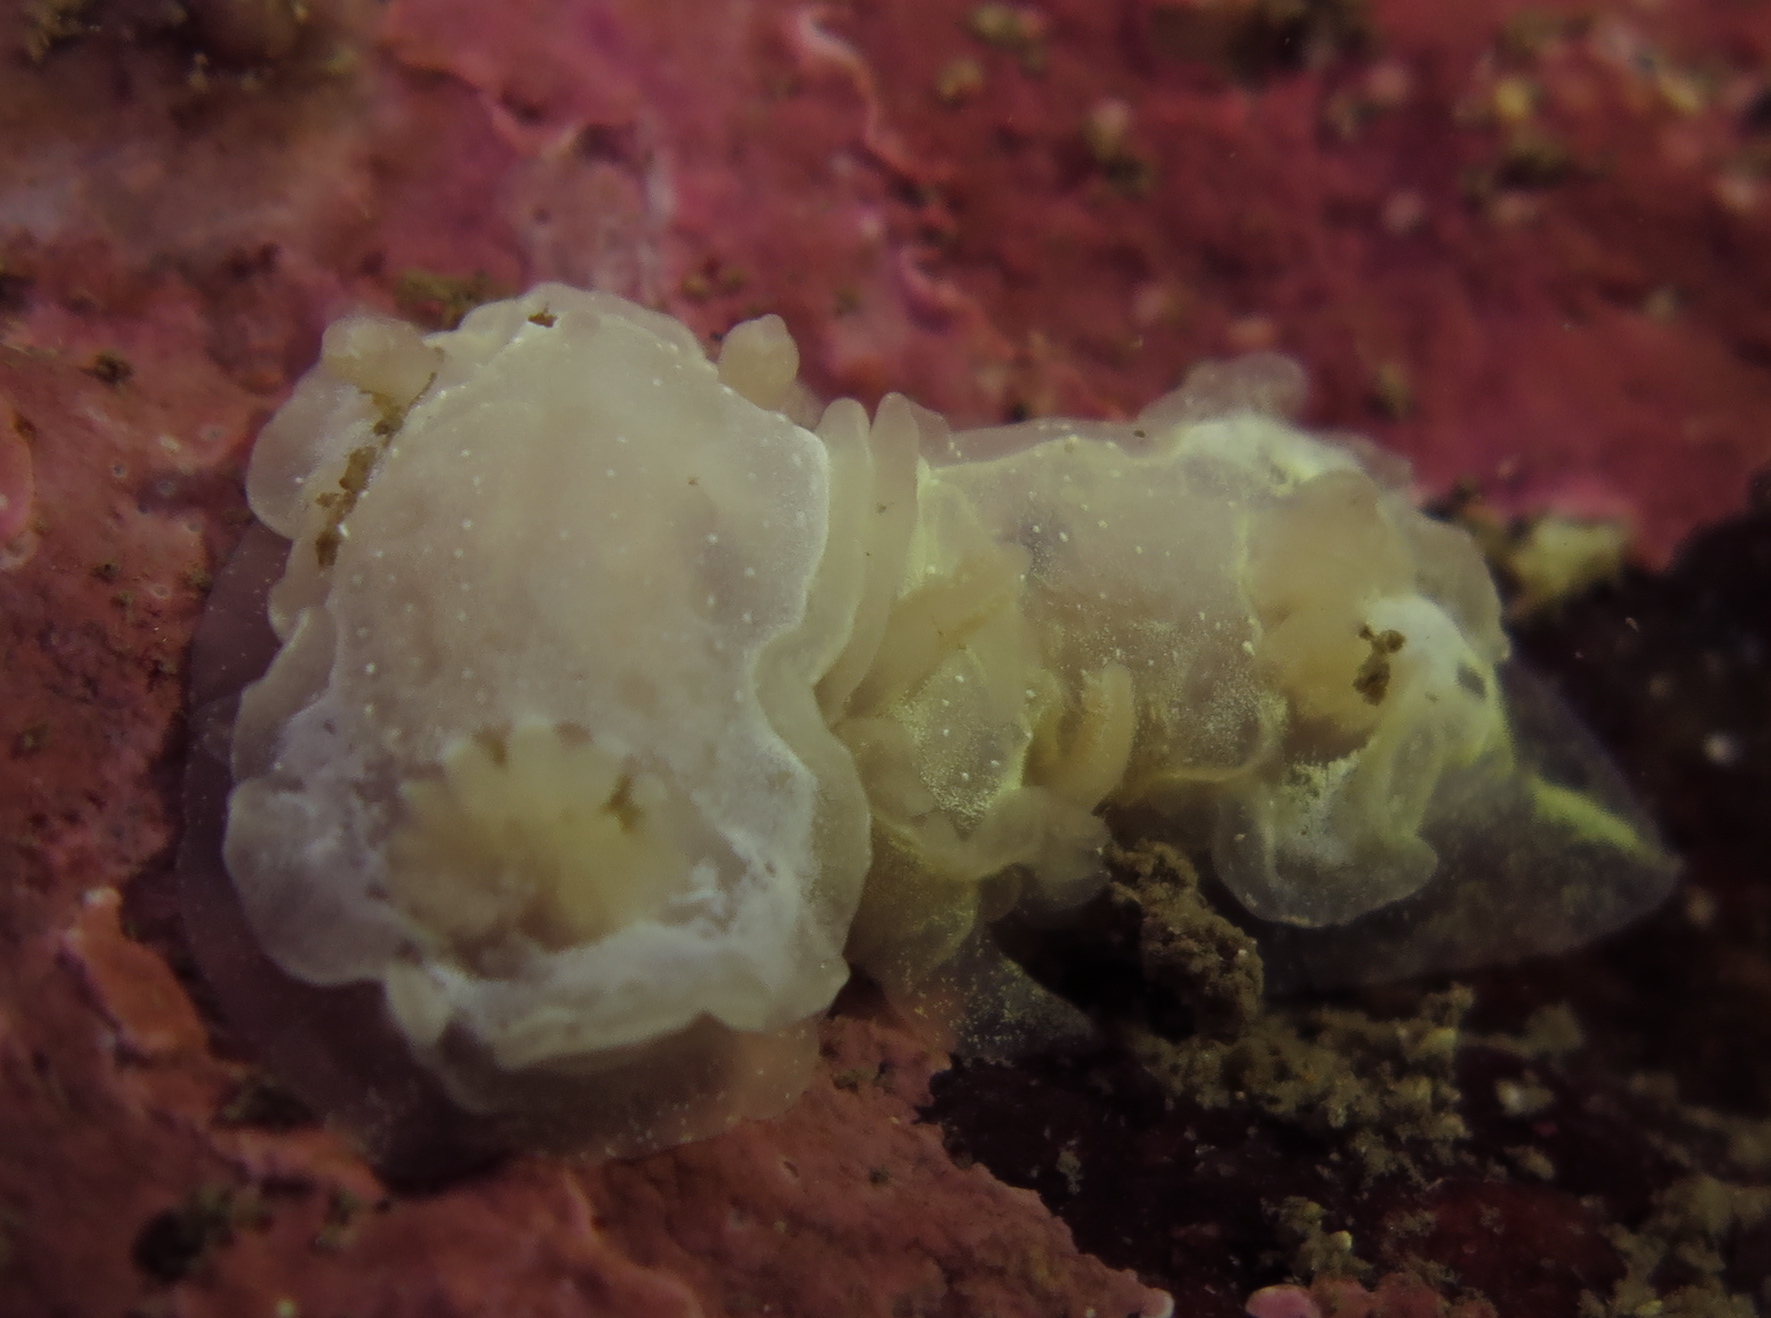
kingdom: Animalia
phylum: Mollusca
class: Gastropoda
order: Nudibranchia
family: Goniodorididae
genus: Okenia
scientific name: Okenia
